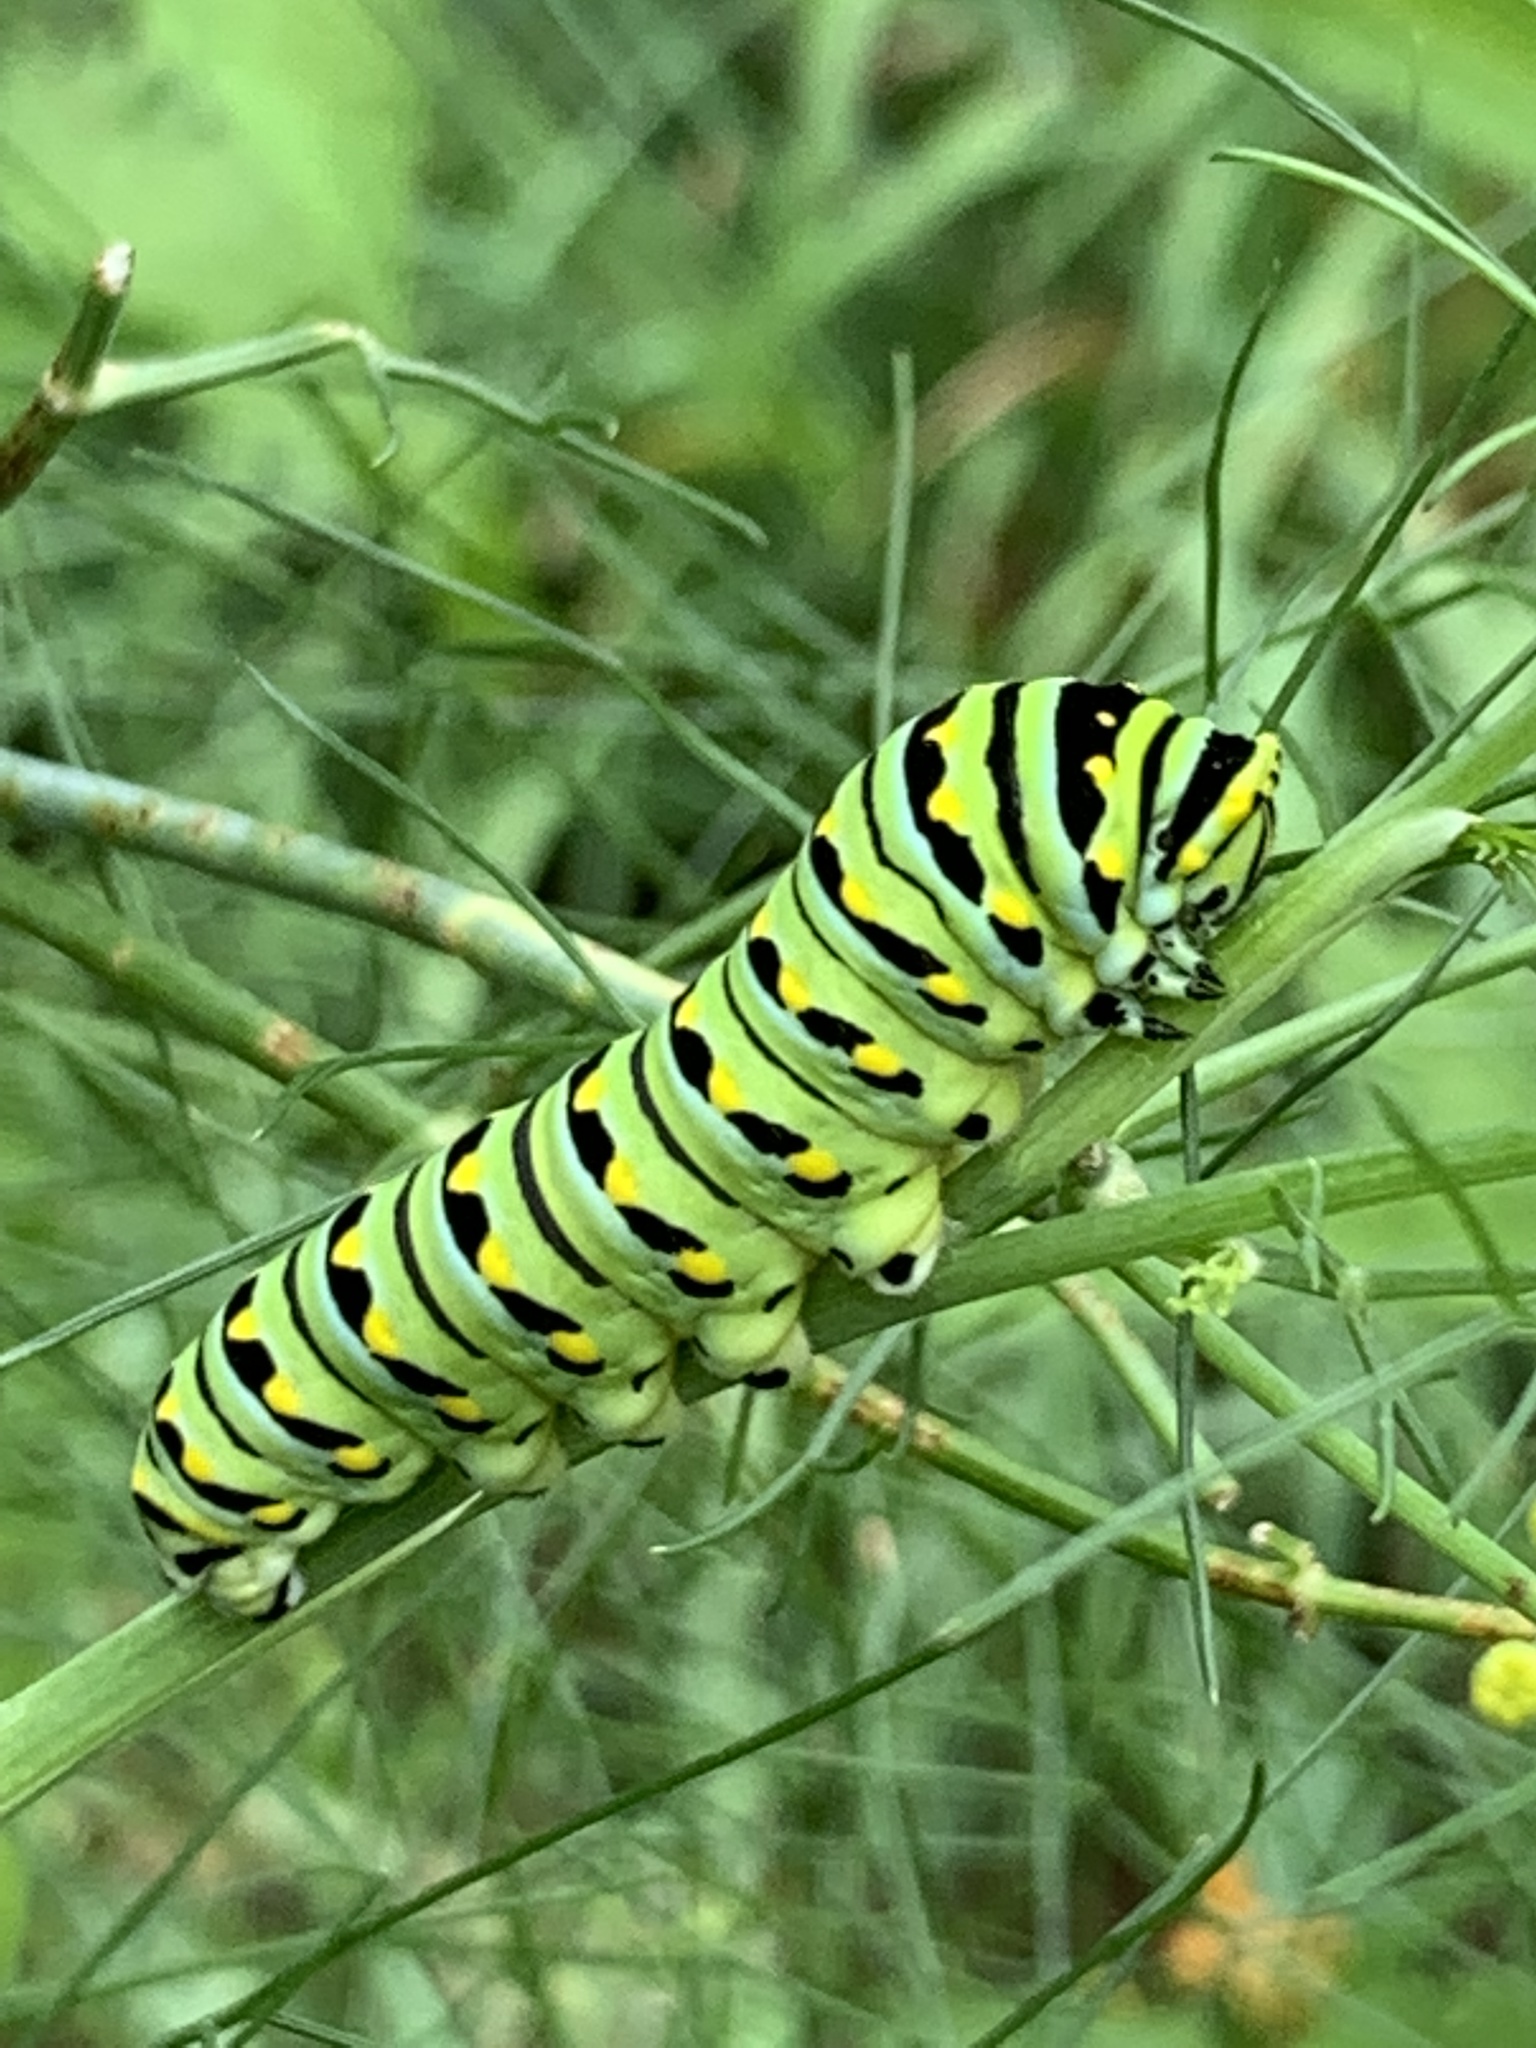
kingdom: Animalia
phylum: Arthropoda
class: Insecta
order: Lepidoptera
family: Papilionidae
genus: Papilio
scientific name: Papilio polyxenes
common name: Black swallowtail
